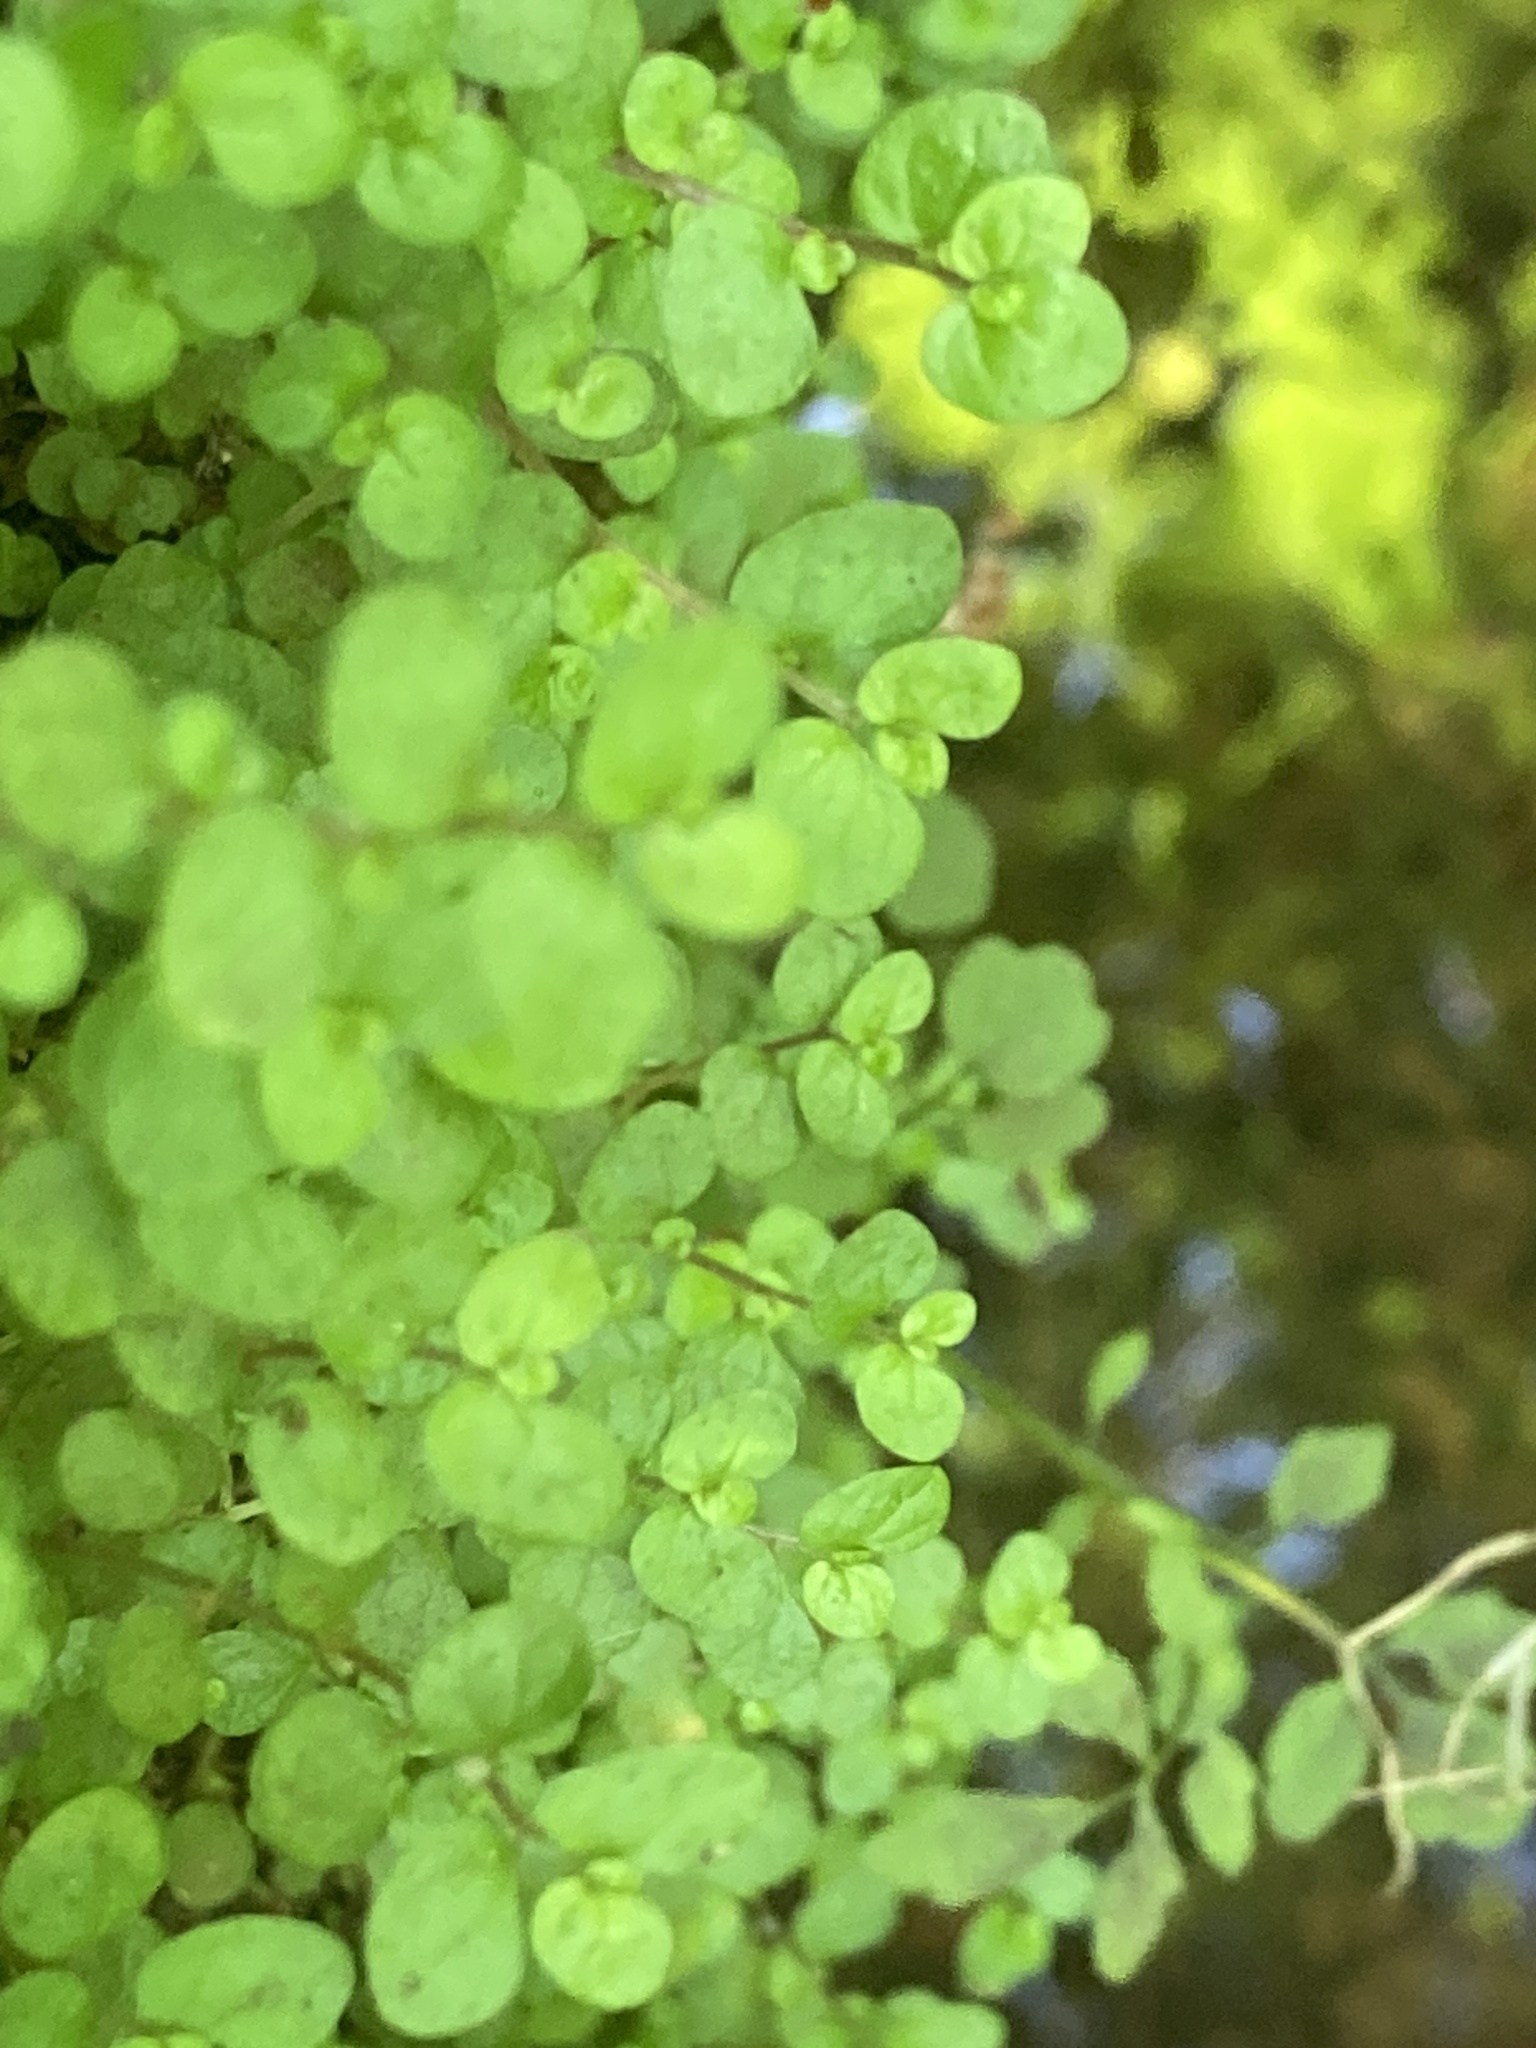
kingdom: Plantae
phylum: Tracheophyta
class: Magnoliopsida
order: Rosales
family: Urticaceae
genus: Soleirolia
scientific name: Soleirolia soleirolii
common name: Mind-your-own-business
